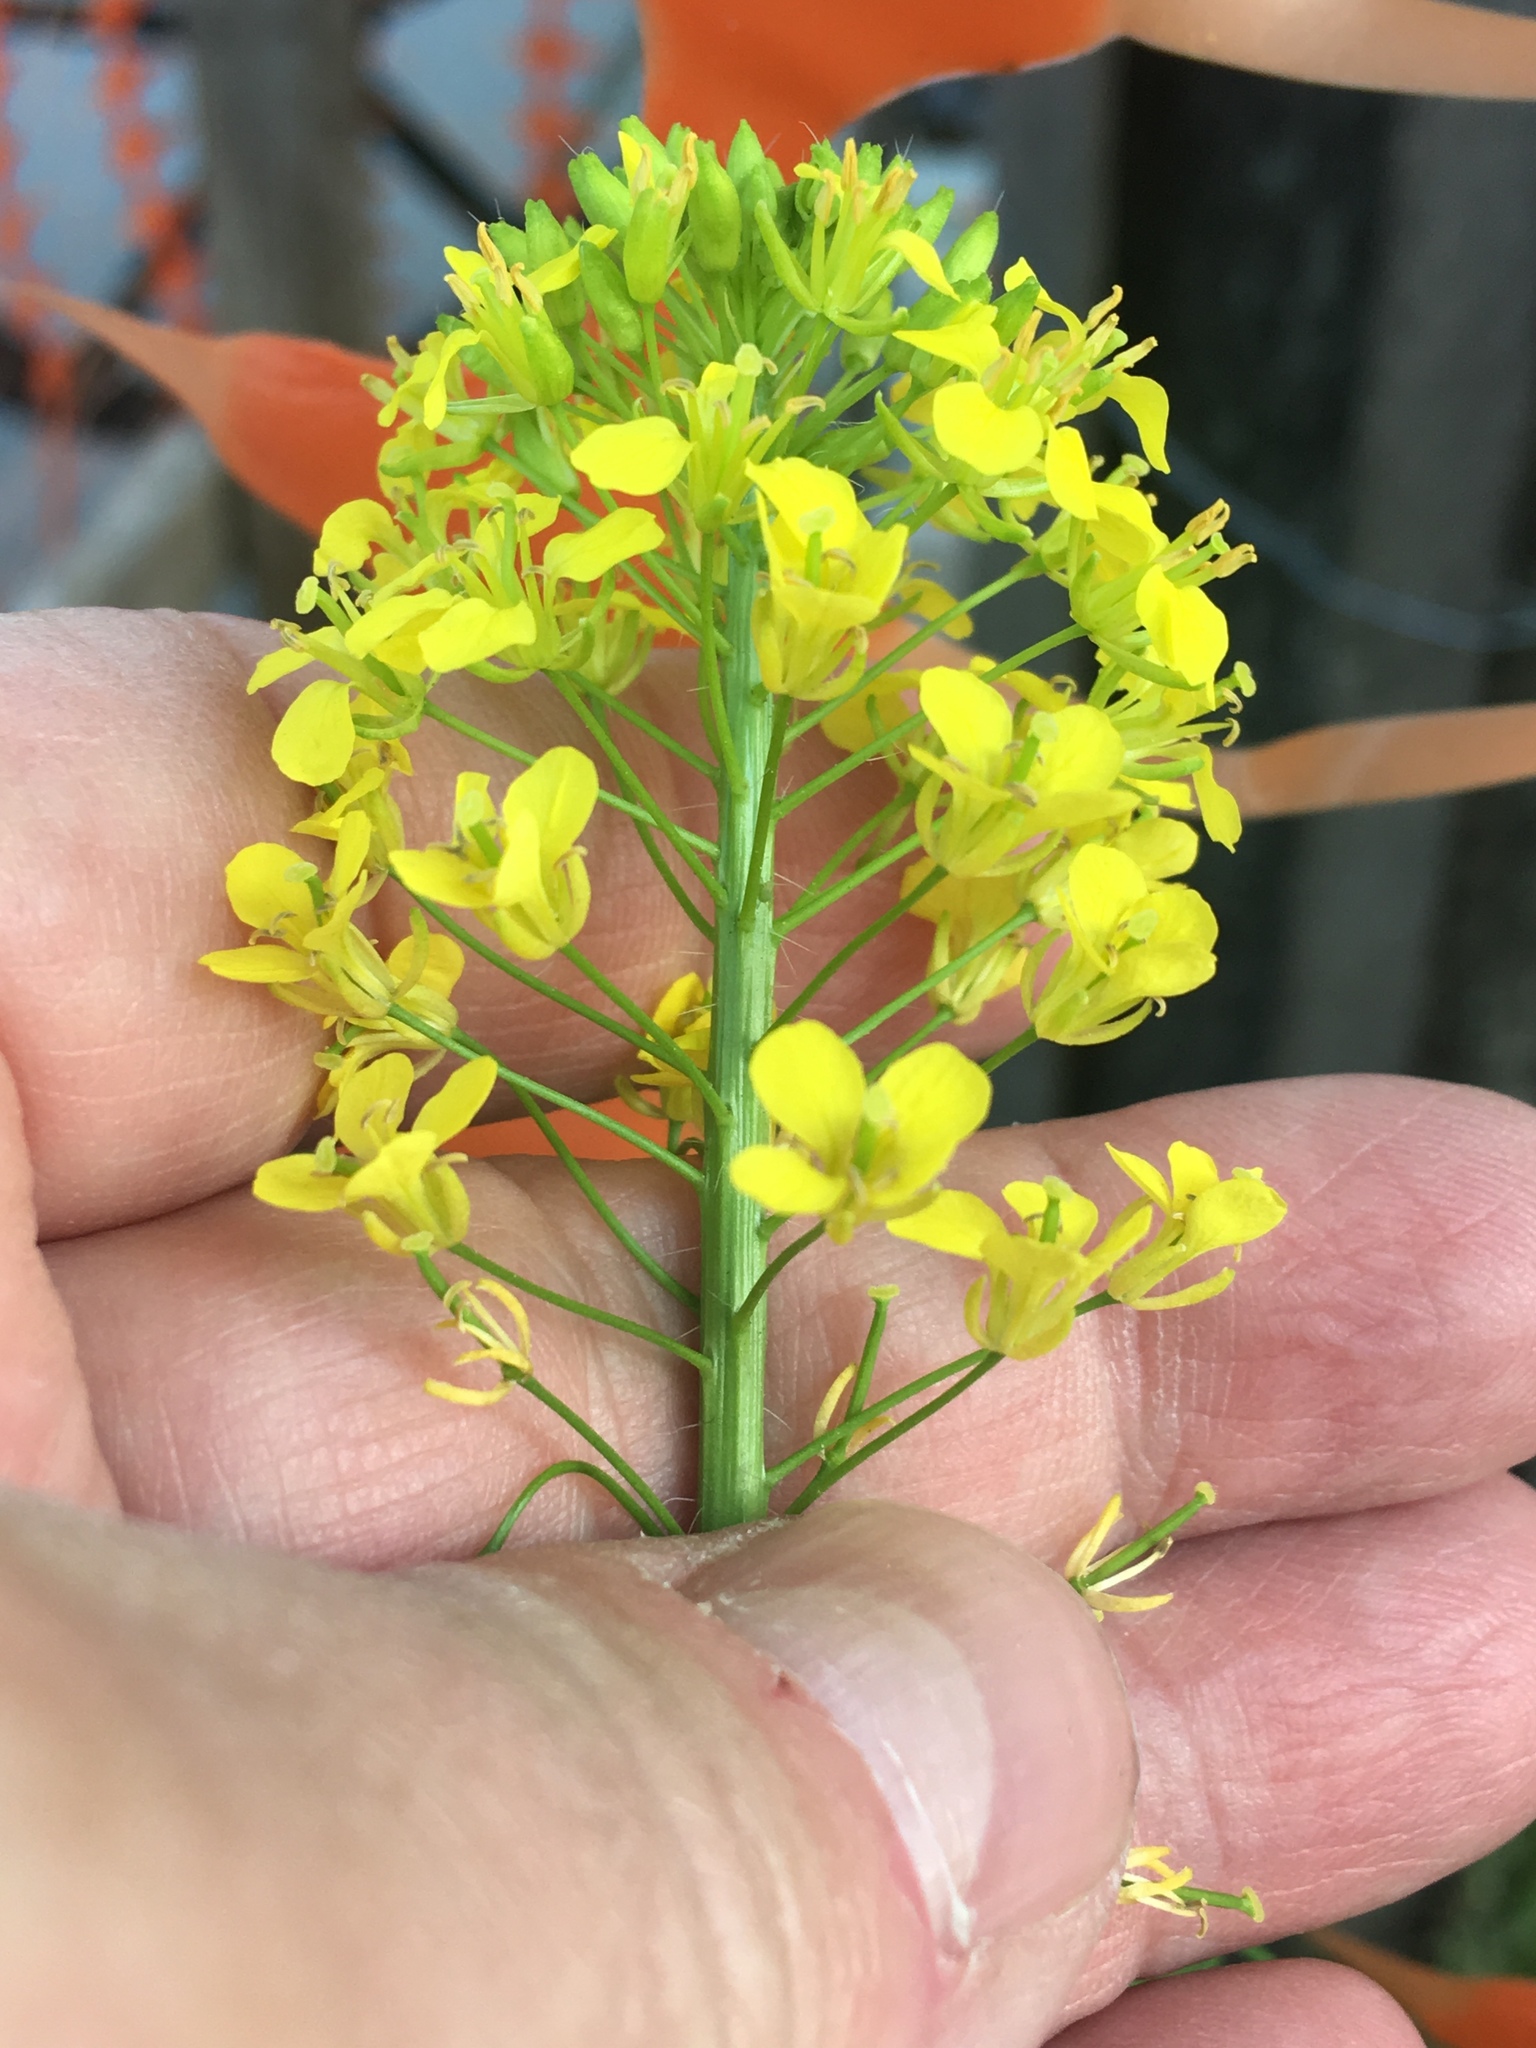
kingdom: Plantae
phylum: Tracheophyta
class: Magnoliopsida
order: Brassicales
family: Brassicaceae
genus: Sisymbrium
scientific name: Sisymbrium loeselii
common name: False london-rocket
